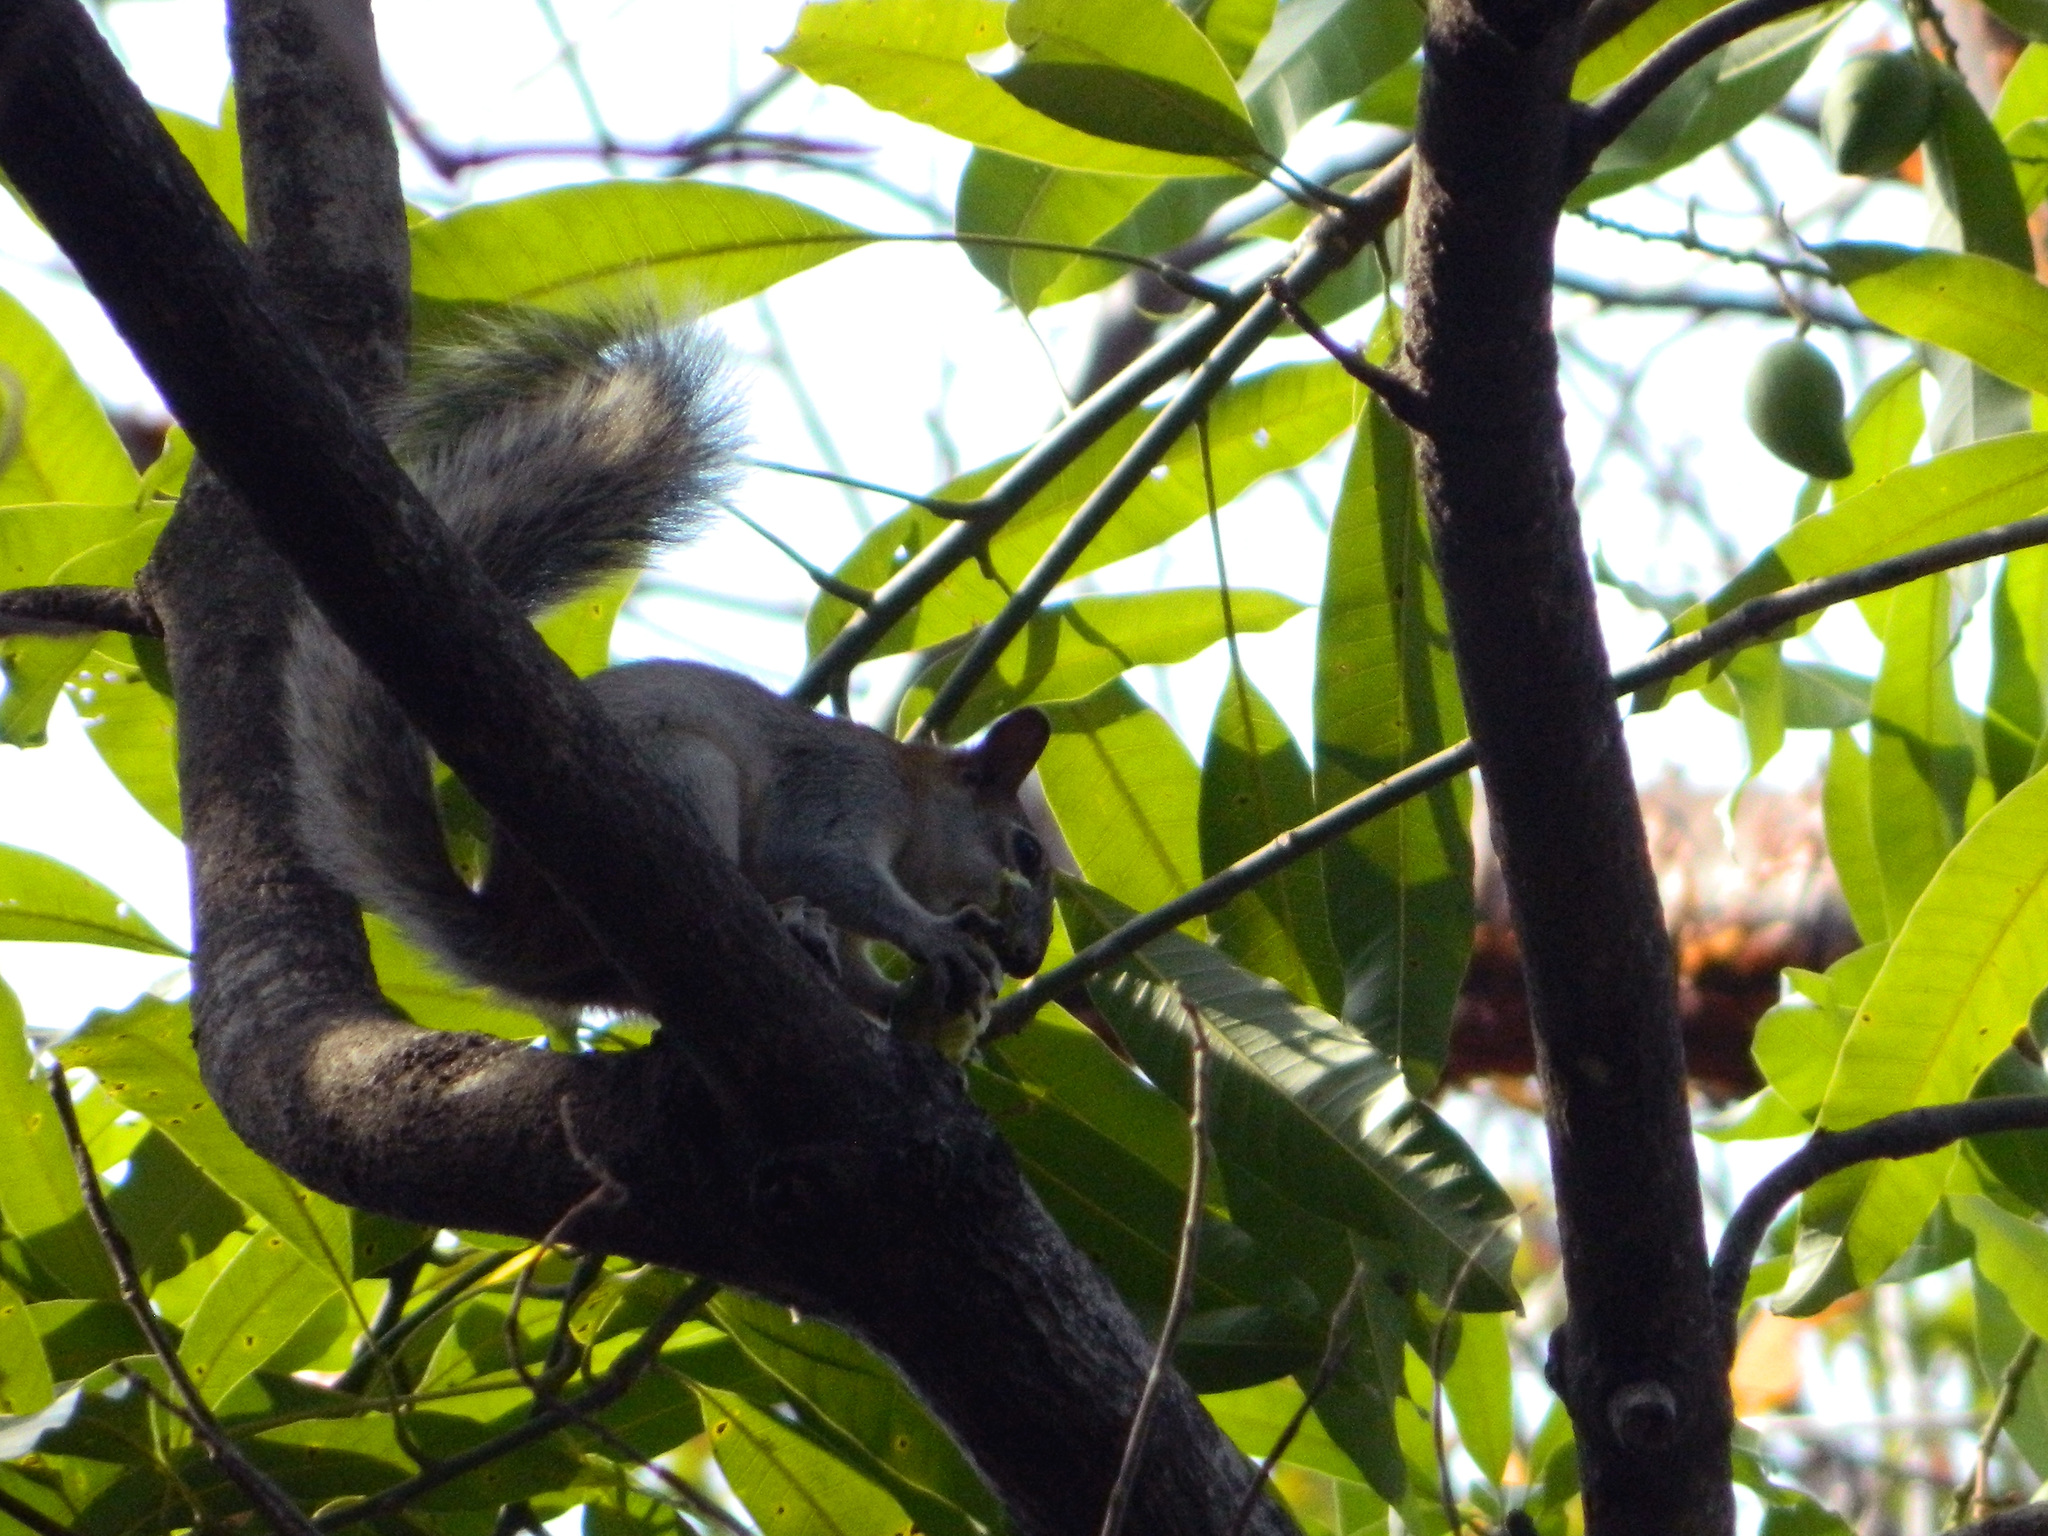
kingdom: Animalia
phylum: Chordata
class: Mammalia
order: Rodentia
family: Sciuridae
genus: Sciurus
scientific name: Sciurus aureogaster
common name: Red-bellied squirrel
